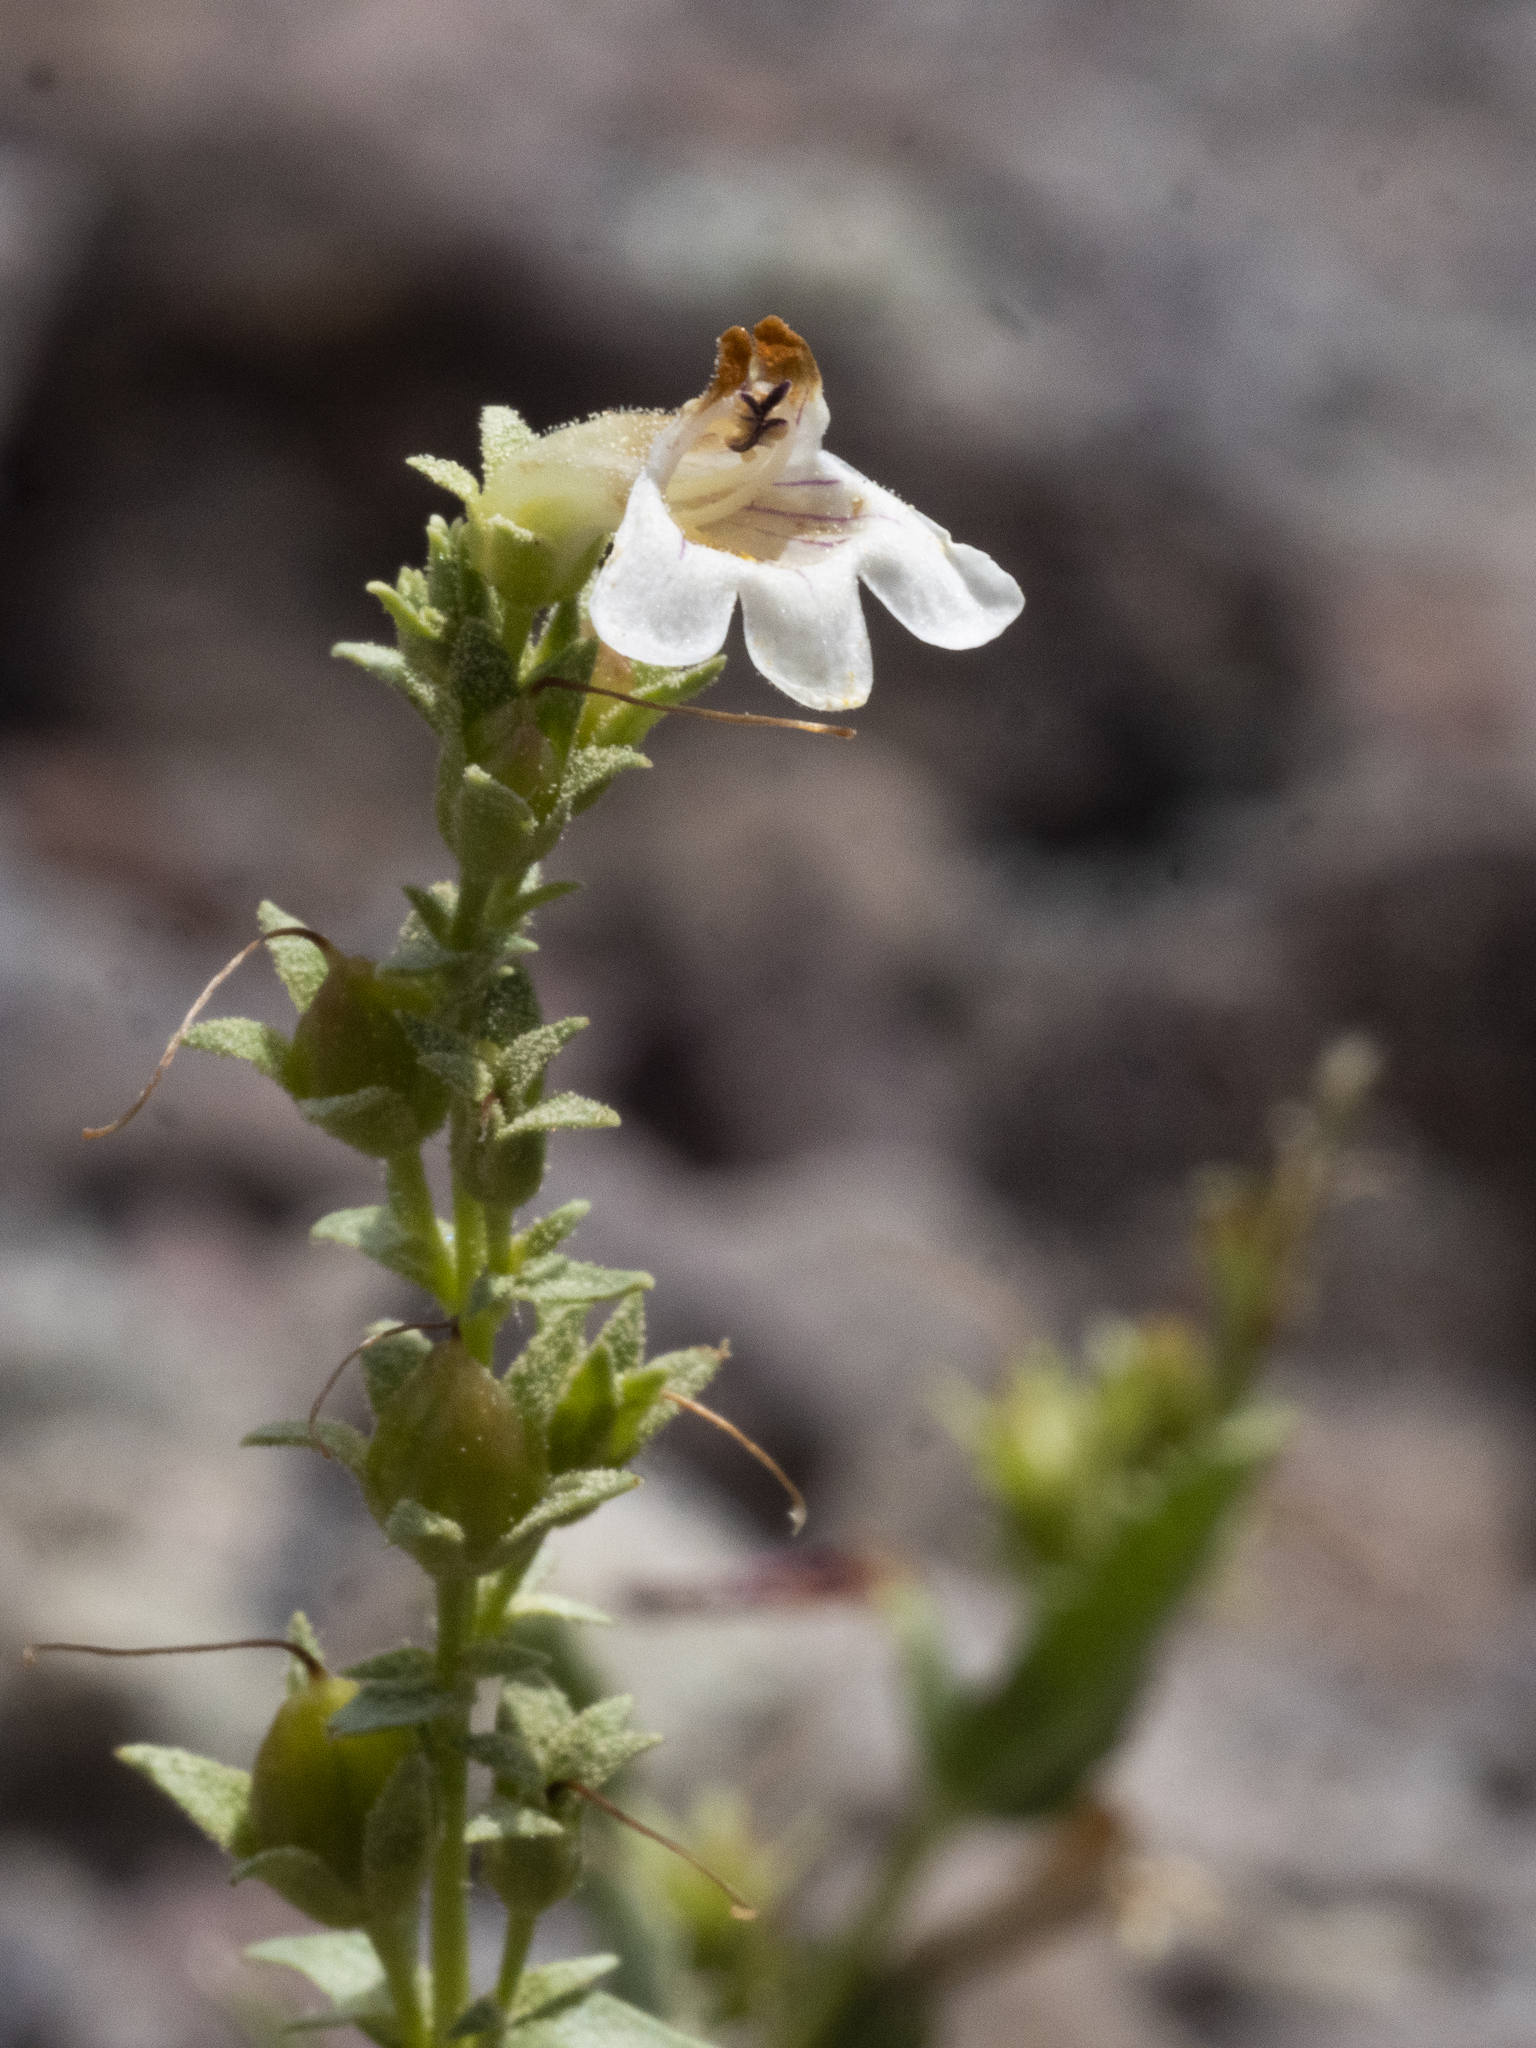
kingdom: Plantae
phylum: Tracheophyta
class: Magnoliopsida
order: Lamiales
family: Plantaginaceae
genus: Penstemon
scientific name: Penstemon deustus
